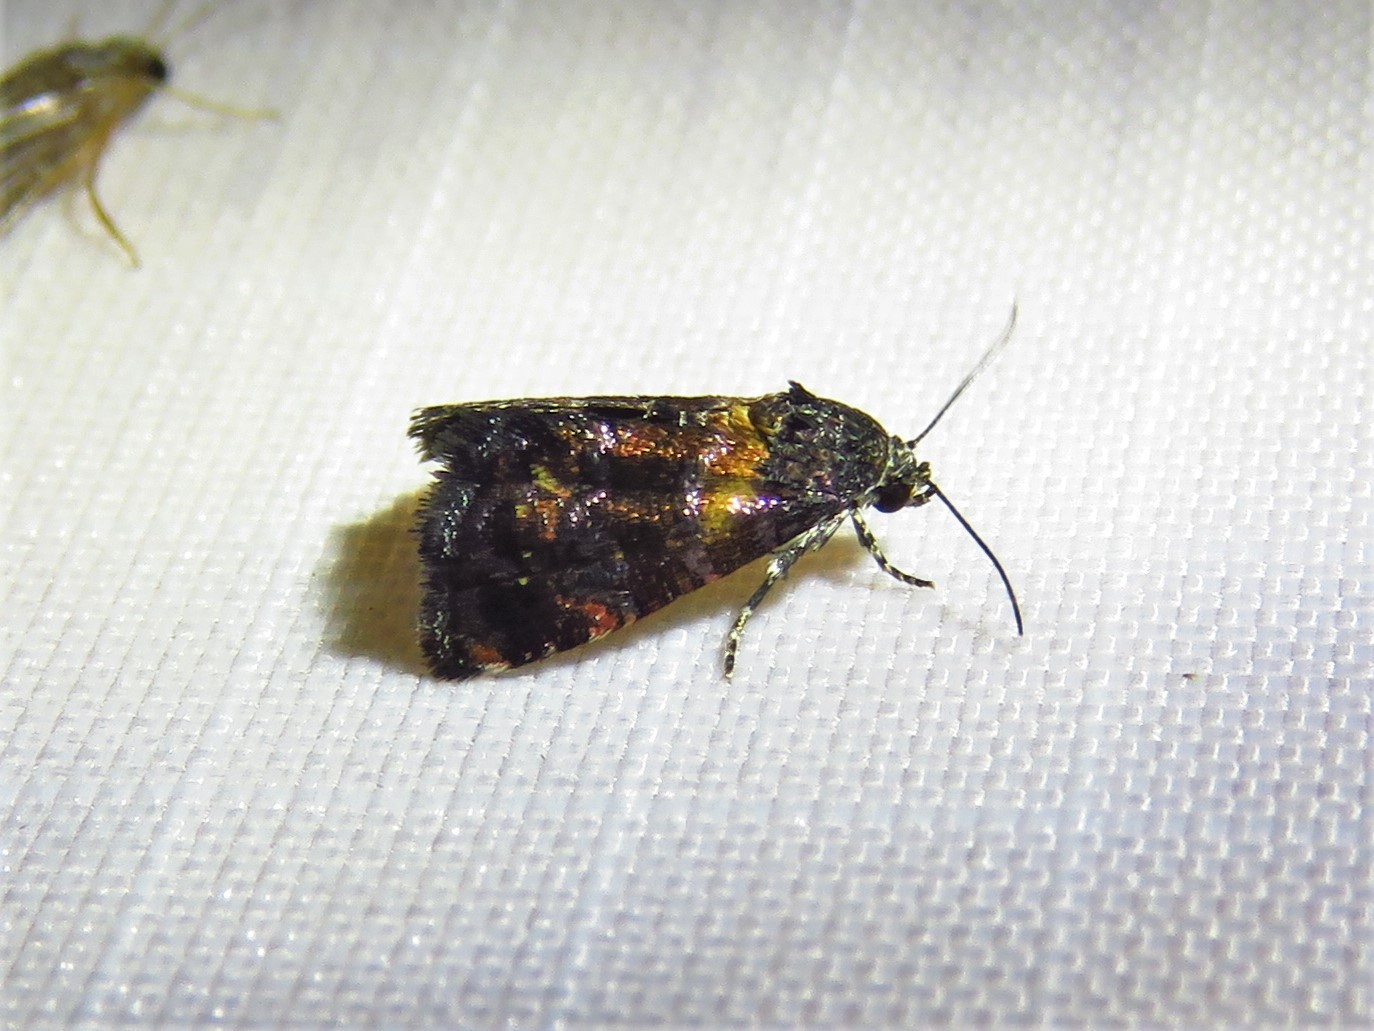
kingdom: Animalia
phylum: Arthropoda
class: Insecta
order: Lepidoptera
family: Noctuidae
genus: Tripudia
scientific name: Tripudia flavofasciata
